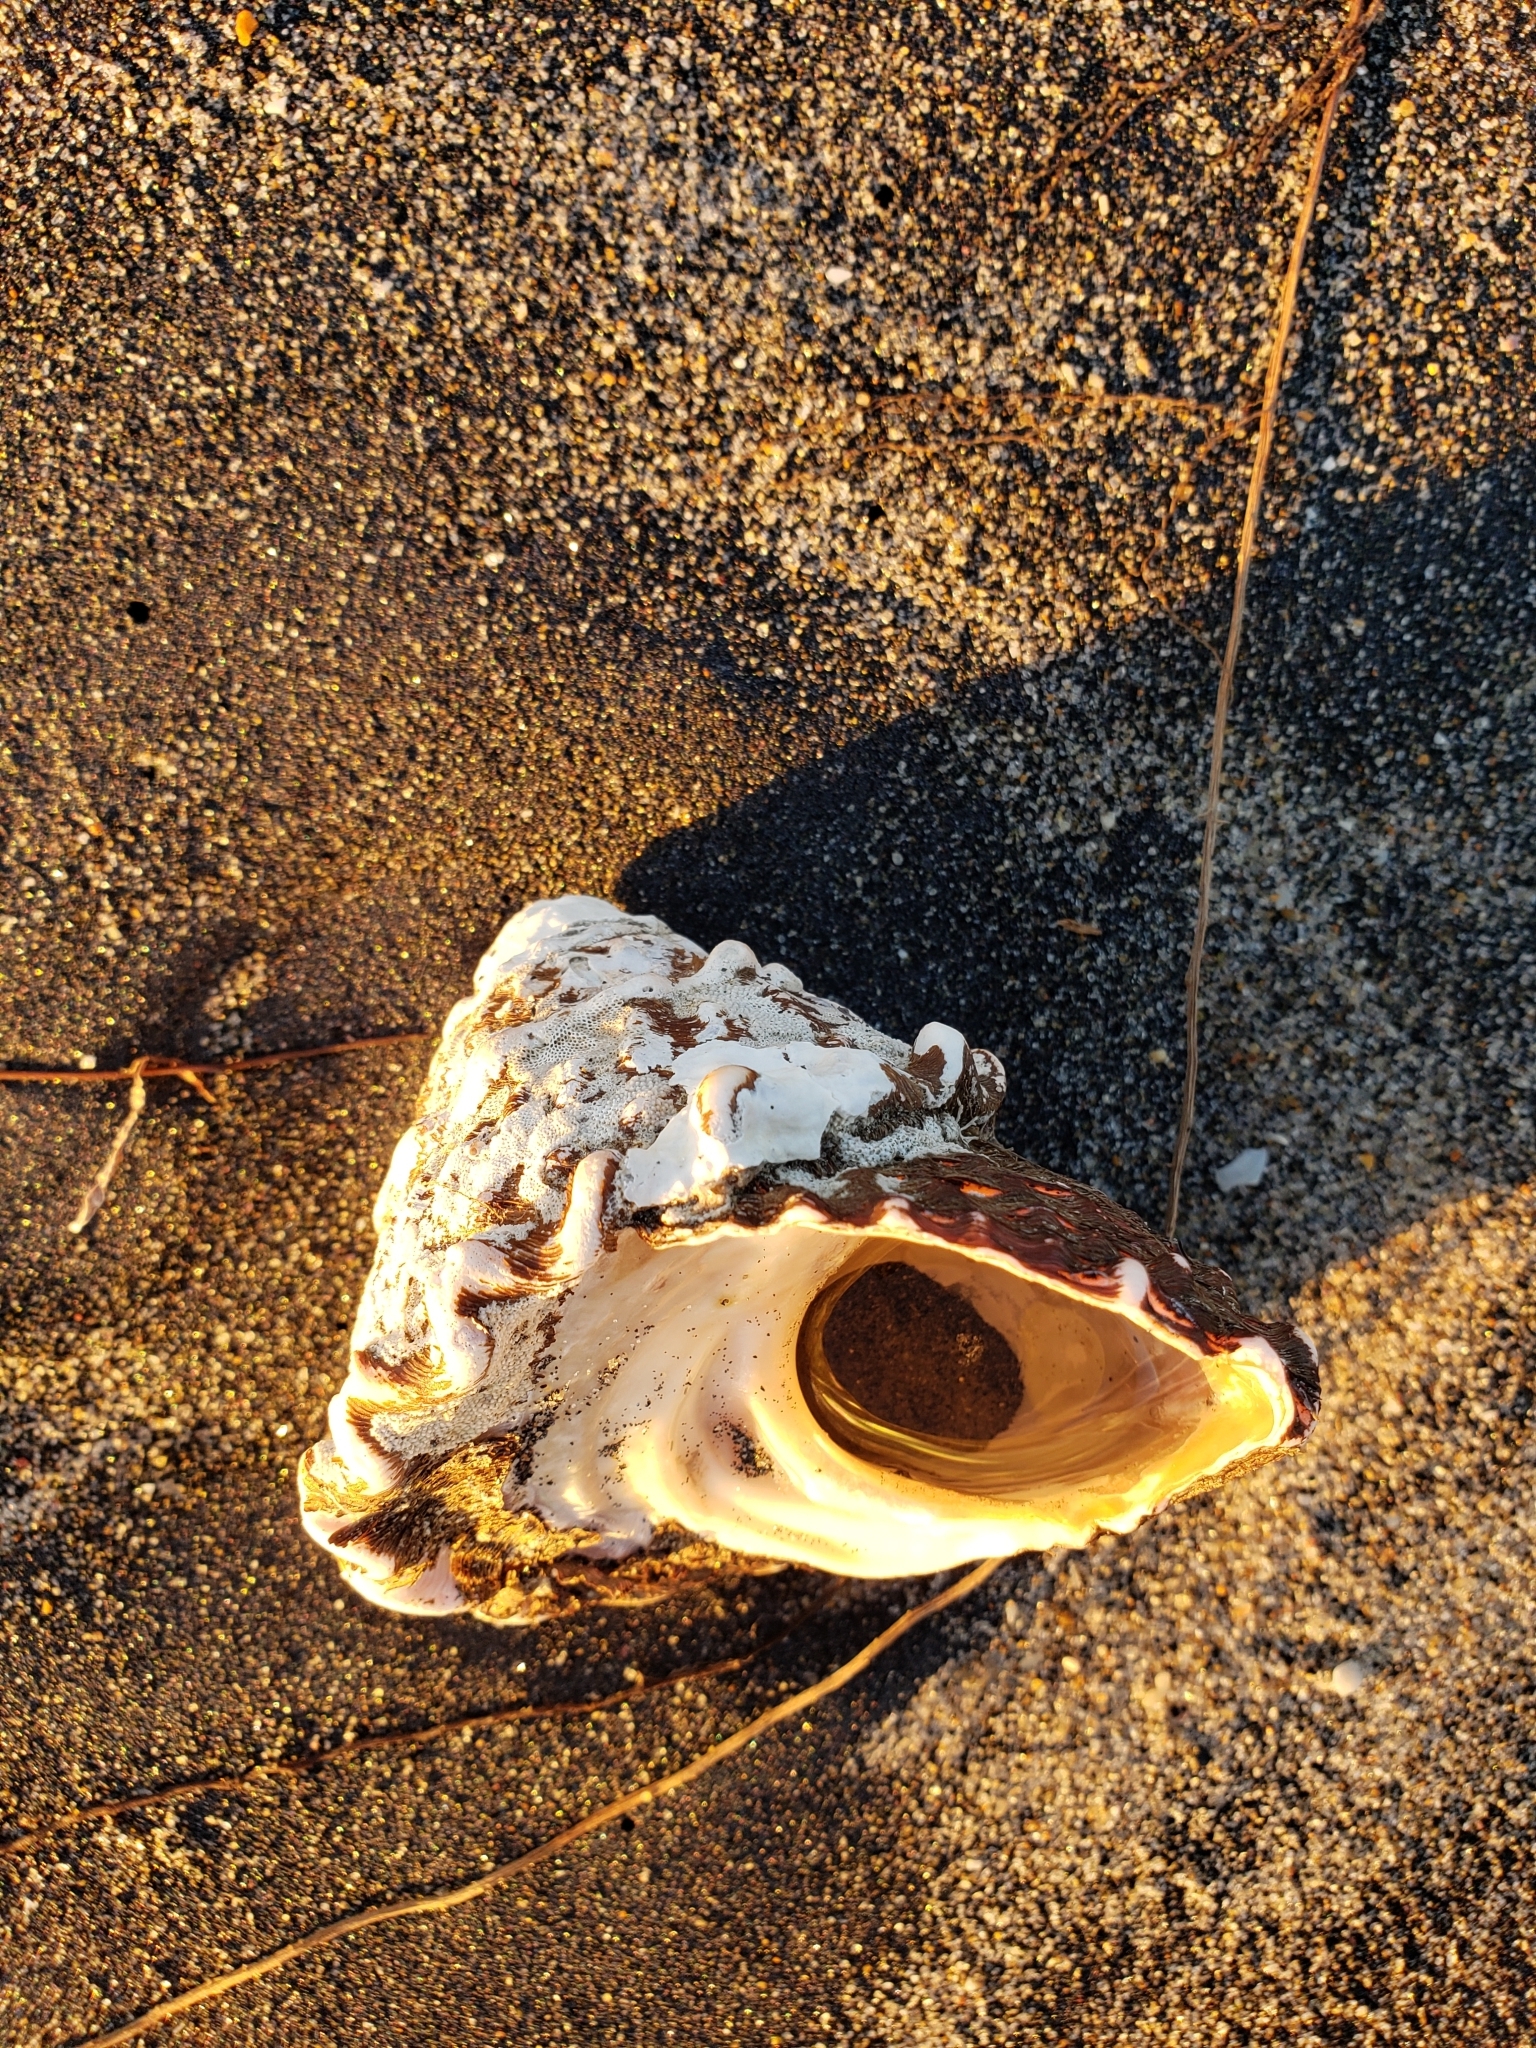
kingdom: Animalia
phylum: Mollusca
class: Gastropoda
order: Trochida
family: Turbinidae
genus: Megastraea
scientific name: Megastraea undosa
